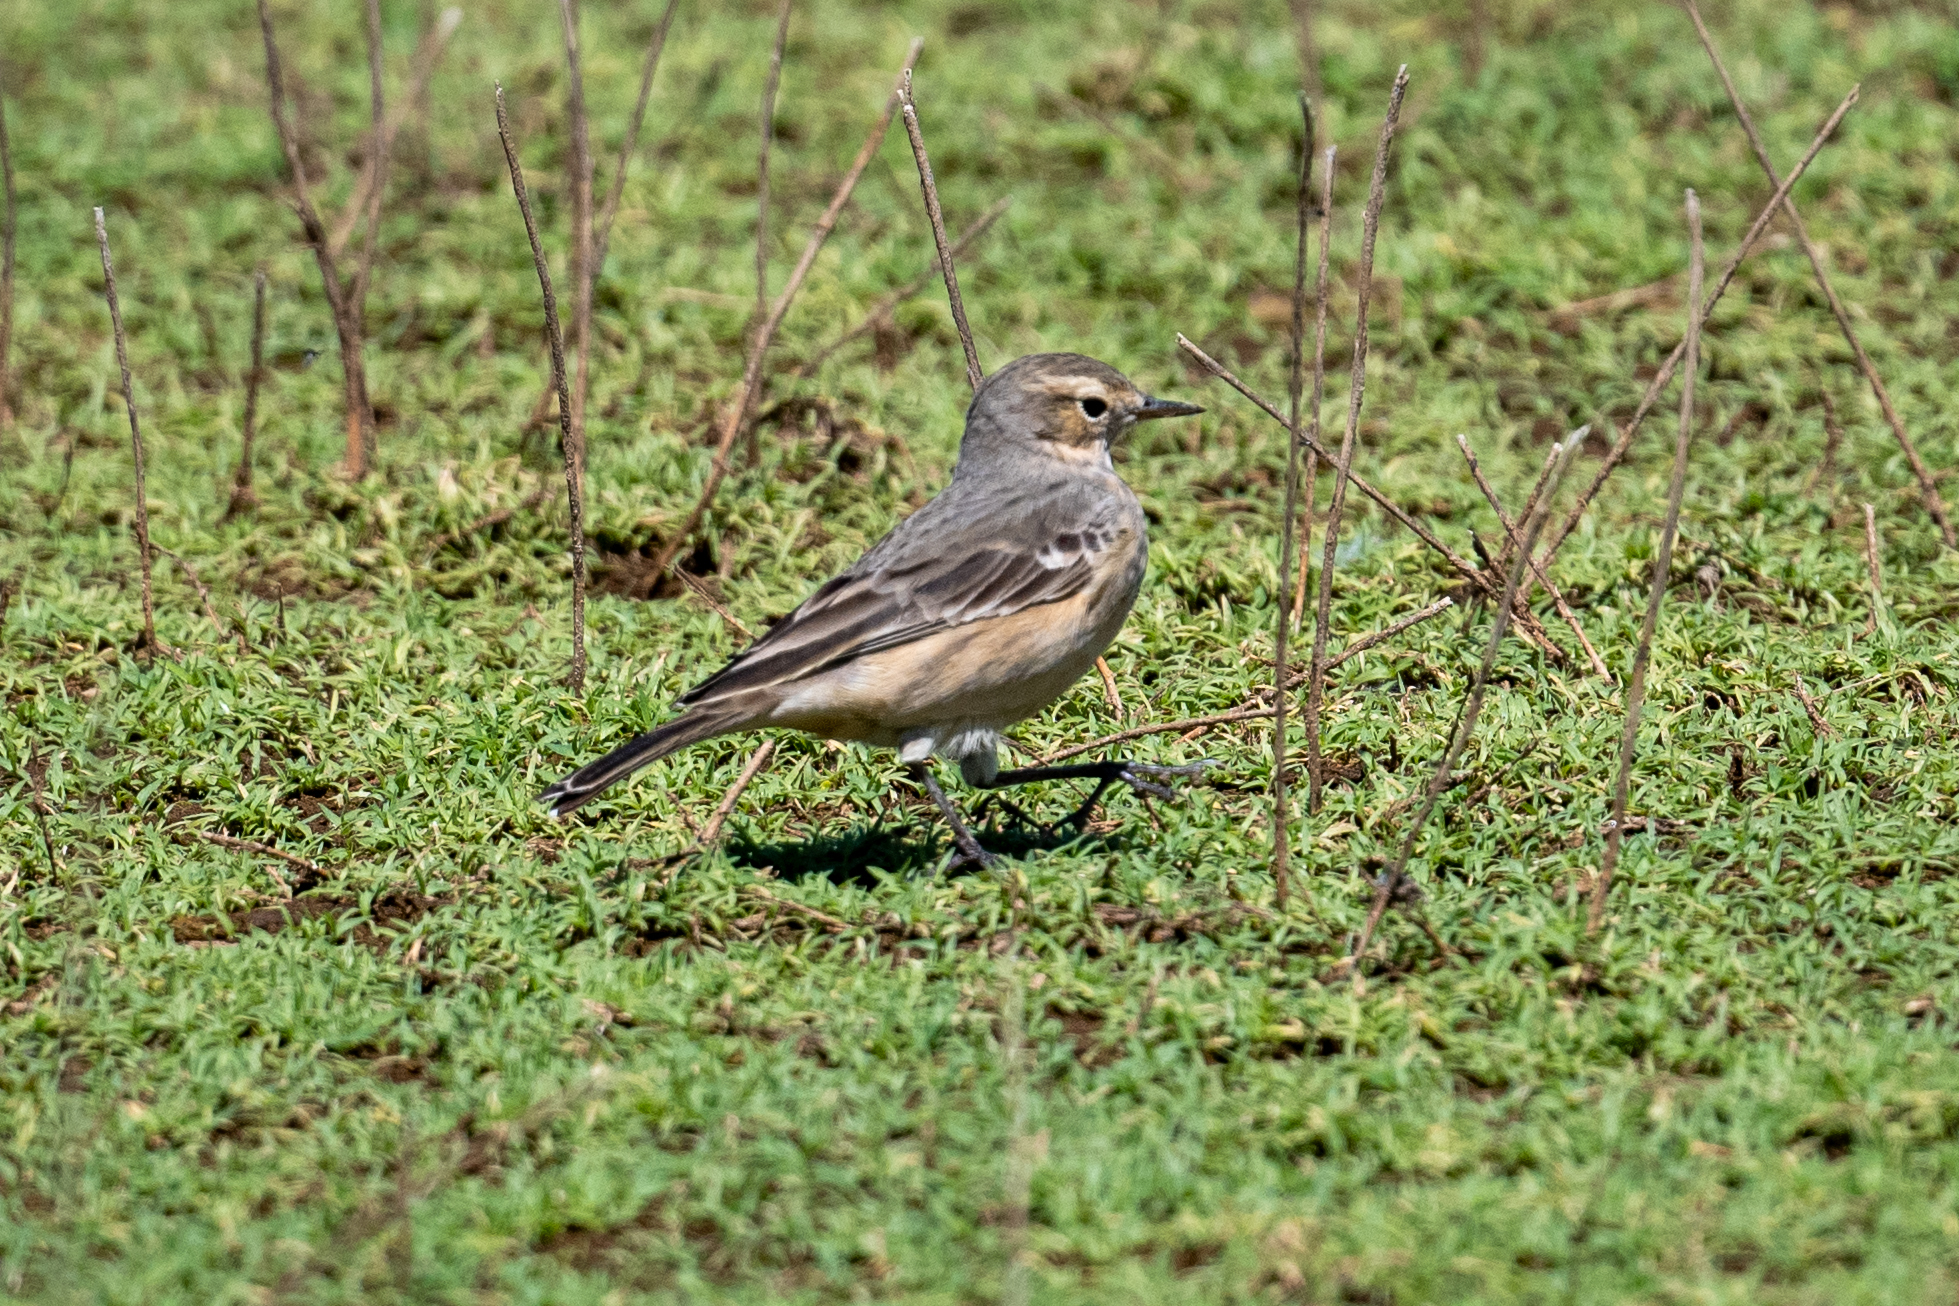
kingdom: Animalia
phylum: Chordata
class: Aves
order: Passeriformes
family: Motacillidae
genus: Anthus
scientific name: Anthus rubescens
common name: Buff-bellied pipit
